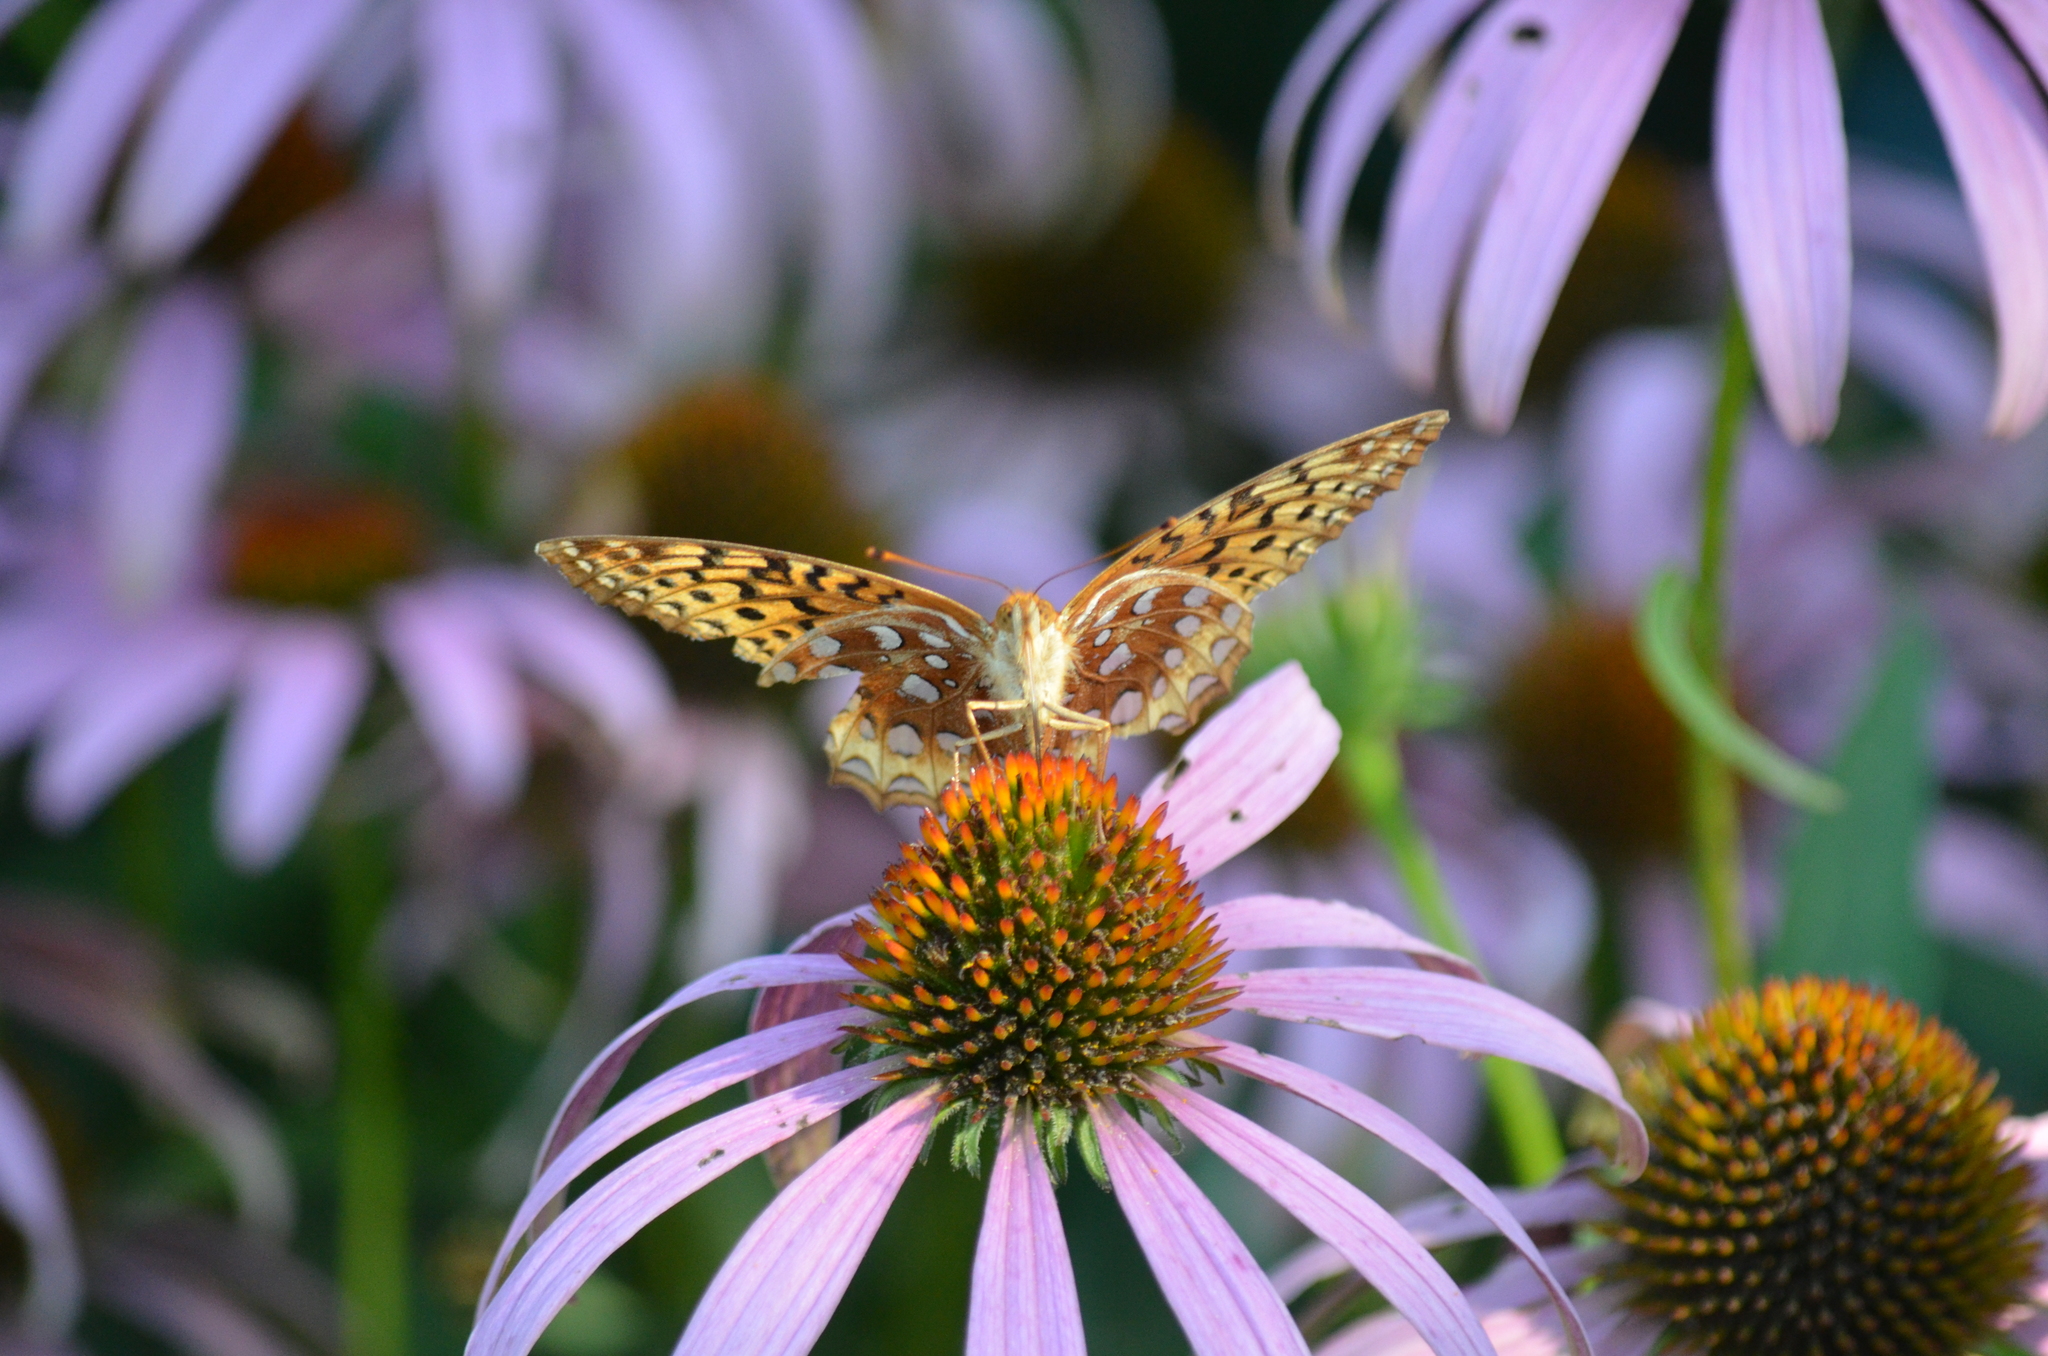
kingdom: Animalia
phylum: Arthropoda
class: Insecta
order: Lepidoptera
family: Nymphalidae
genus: Speyeria
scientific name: Speyeria cybele
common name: Great spangled fritillary
